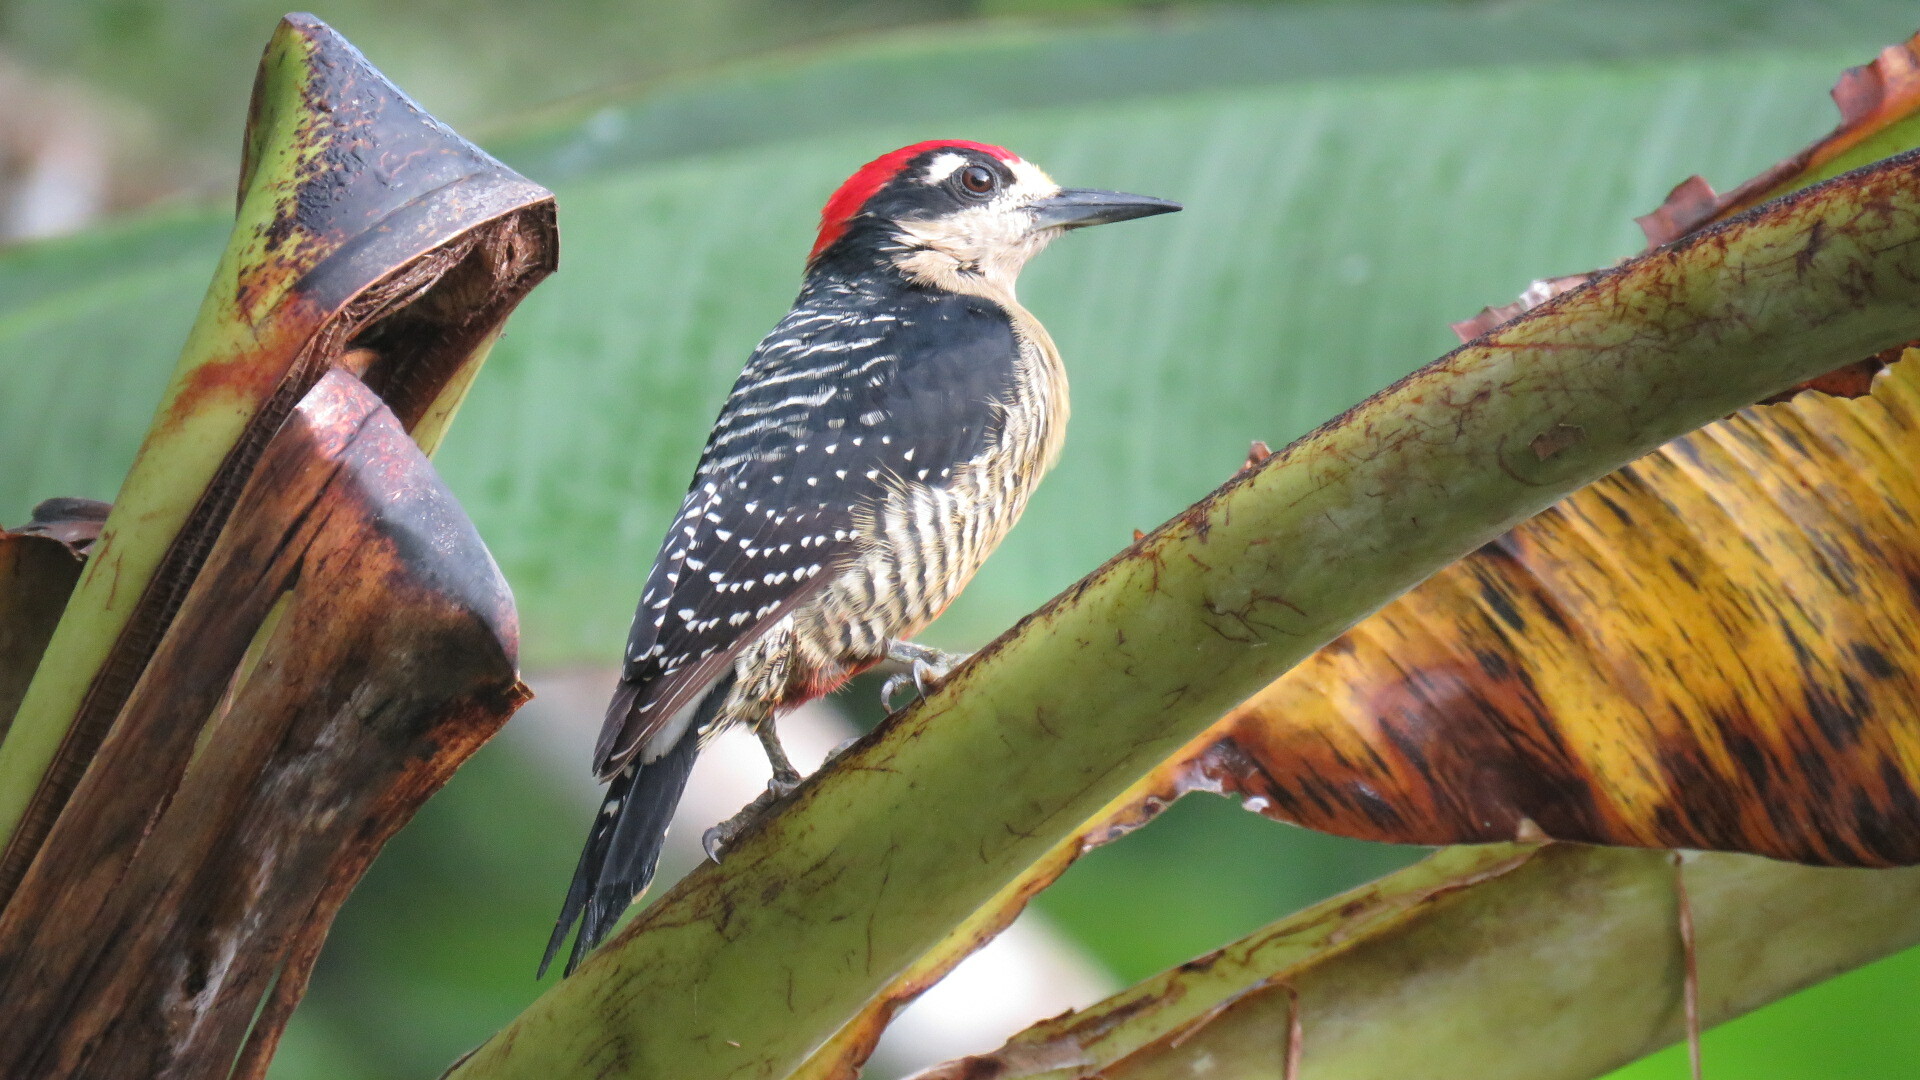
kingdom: Animalia
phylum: Chordata
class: Aves
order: Piciformes
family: Picidae
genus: Melanerpes
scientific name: Melanerpes pucherani
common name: Black-cheeked woodpecker
